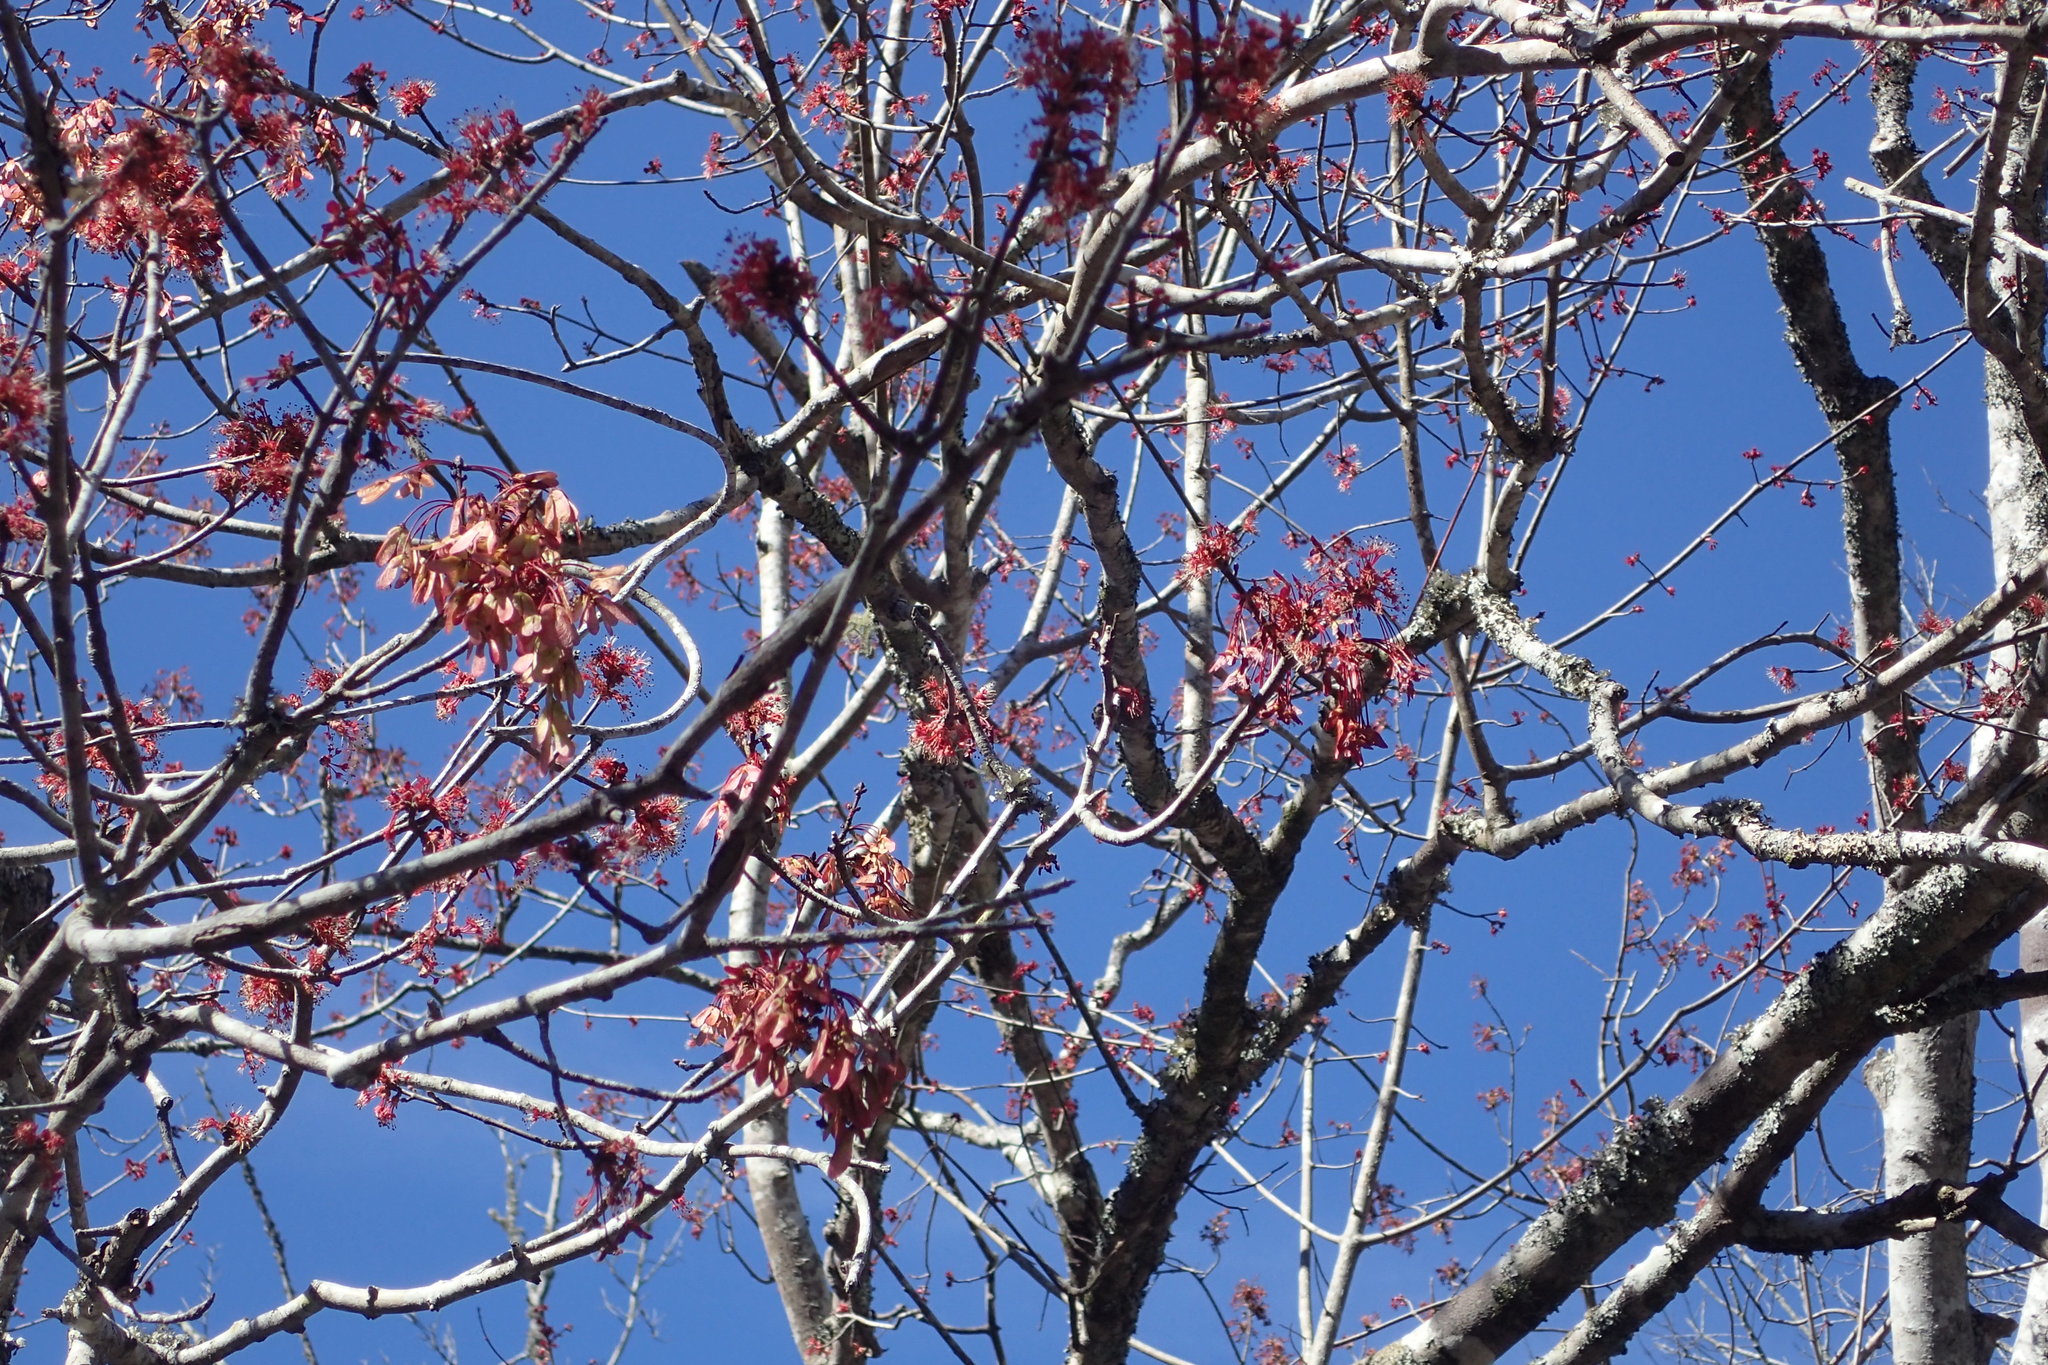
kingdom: Plantae
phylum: Tracheophyta
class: Magnoliopsida
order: Sapindales
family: Sapindaceae
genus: Acer
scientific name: Acer rubrum
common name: Red maple
